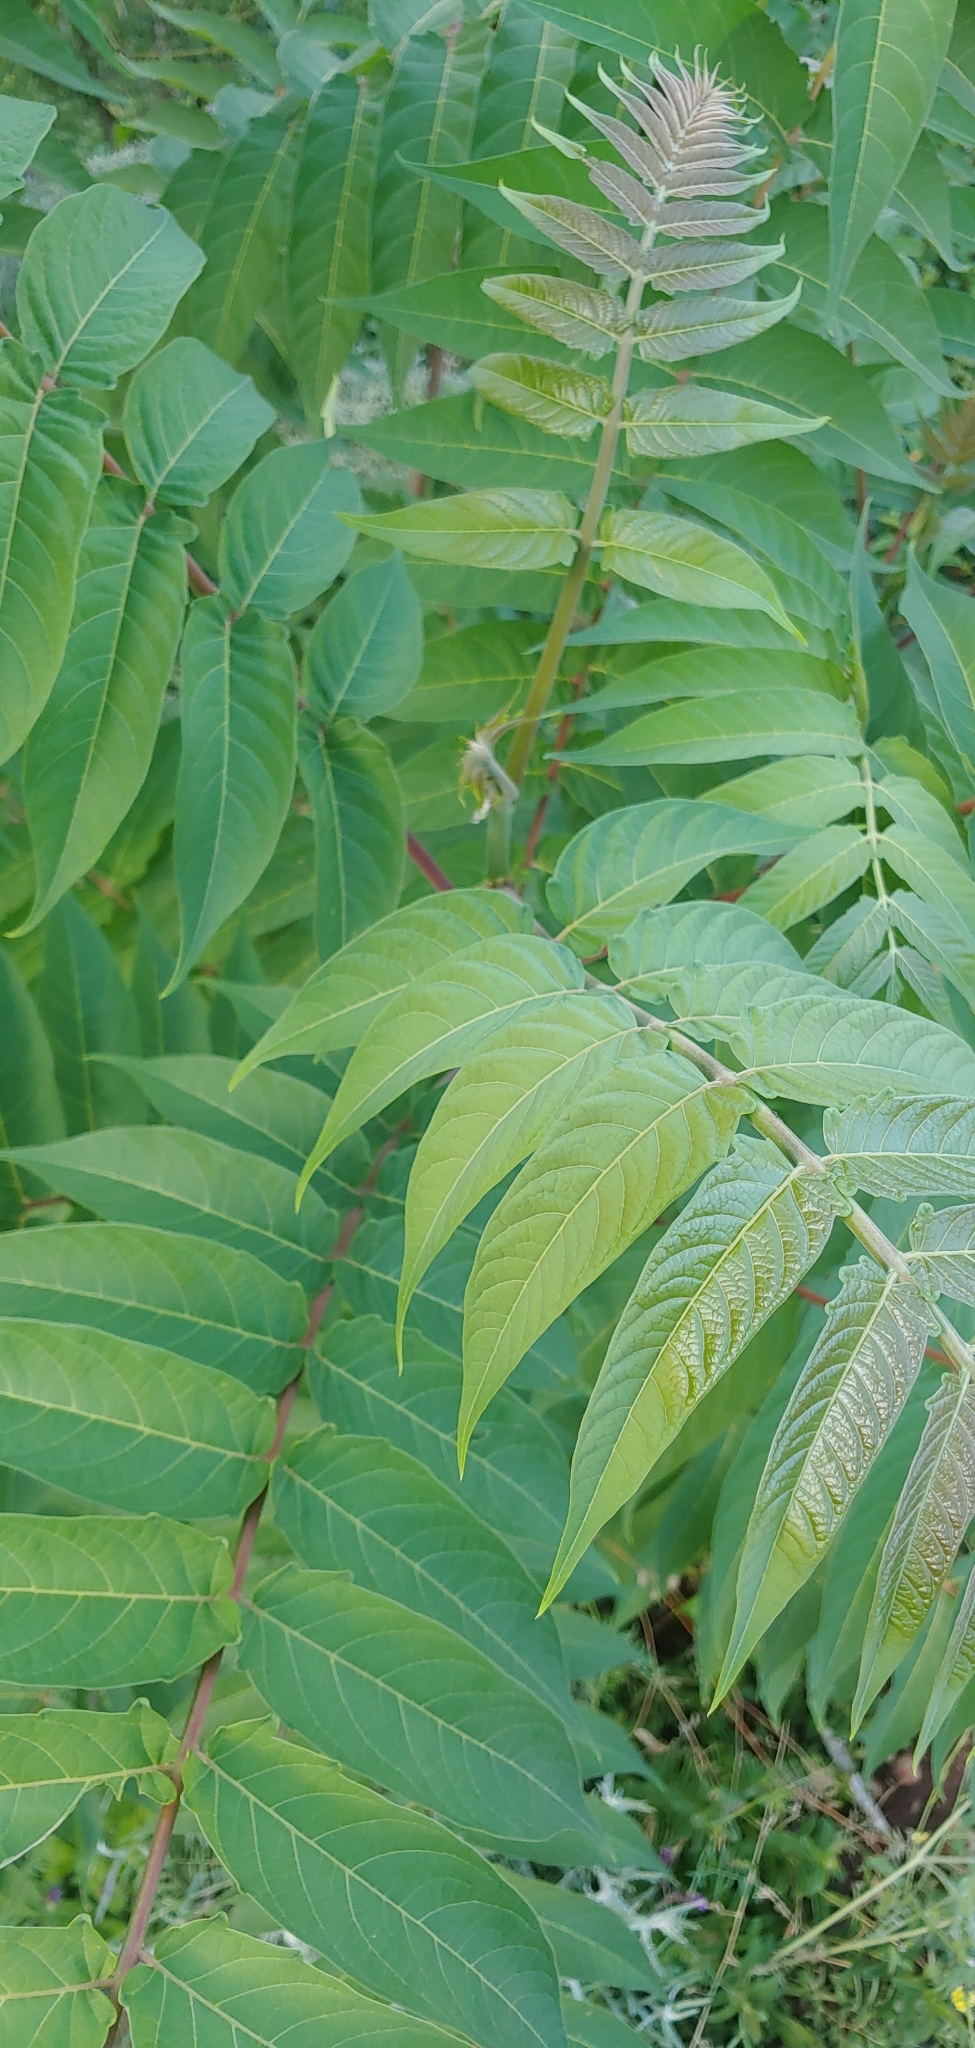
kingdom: Plantae
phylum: Tracheophyta
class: Magnoliopsida
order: Sapindales
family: Simaroubaceae
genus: Ailanthus
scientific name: Ailanthus altissima
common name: Tree-of-heaven
